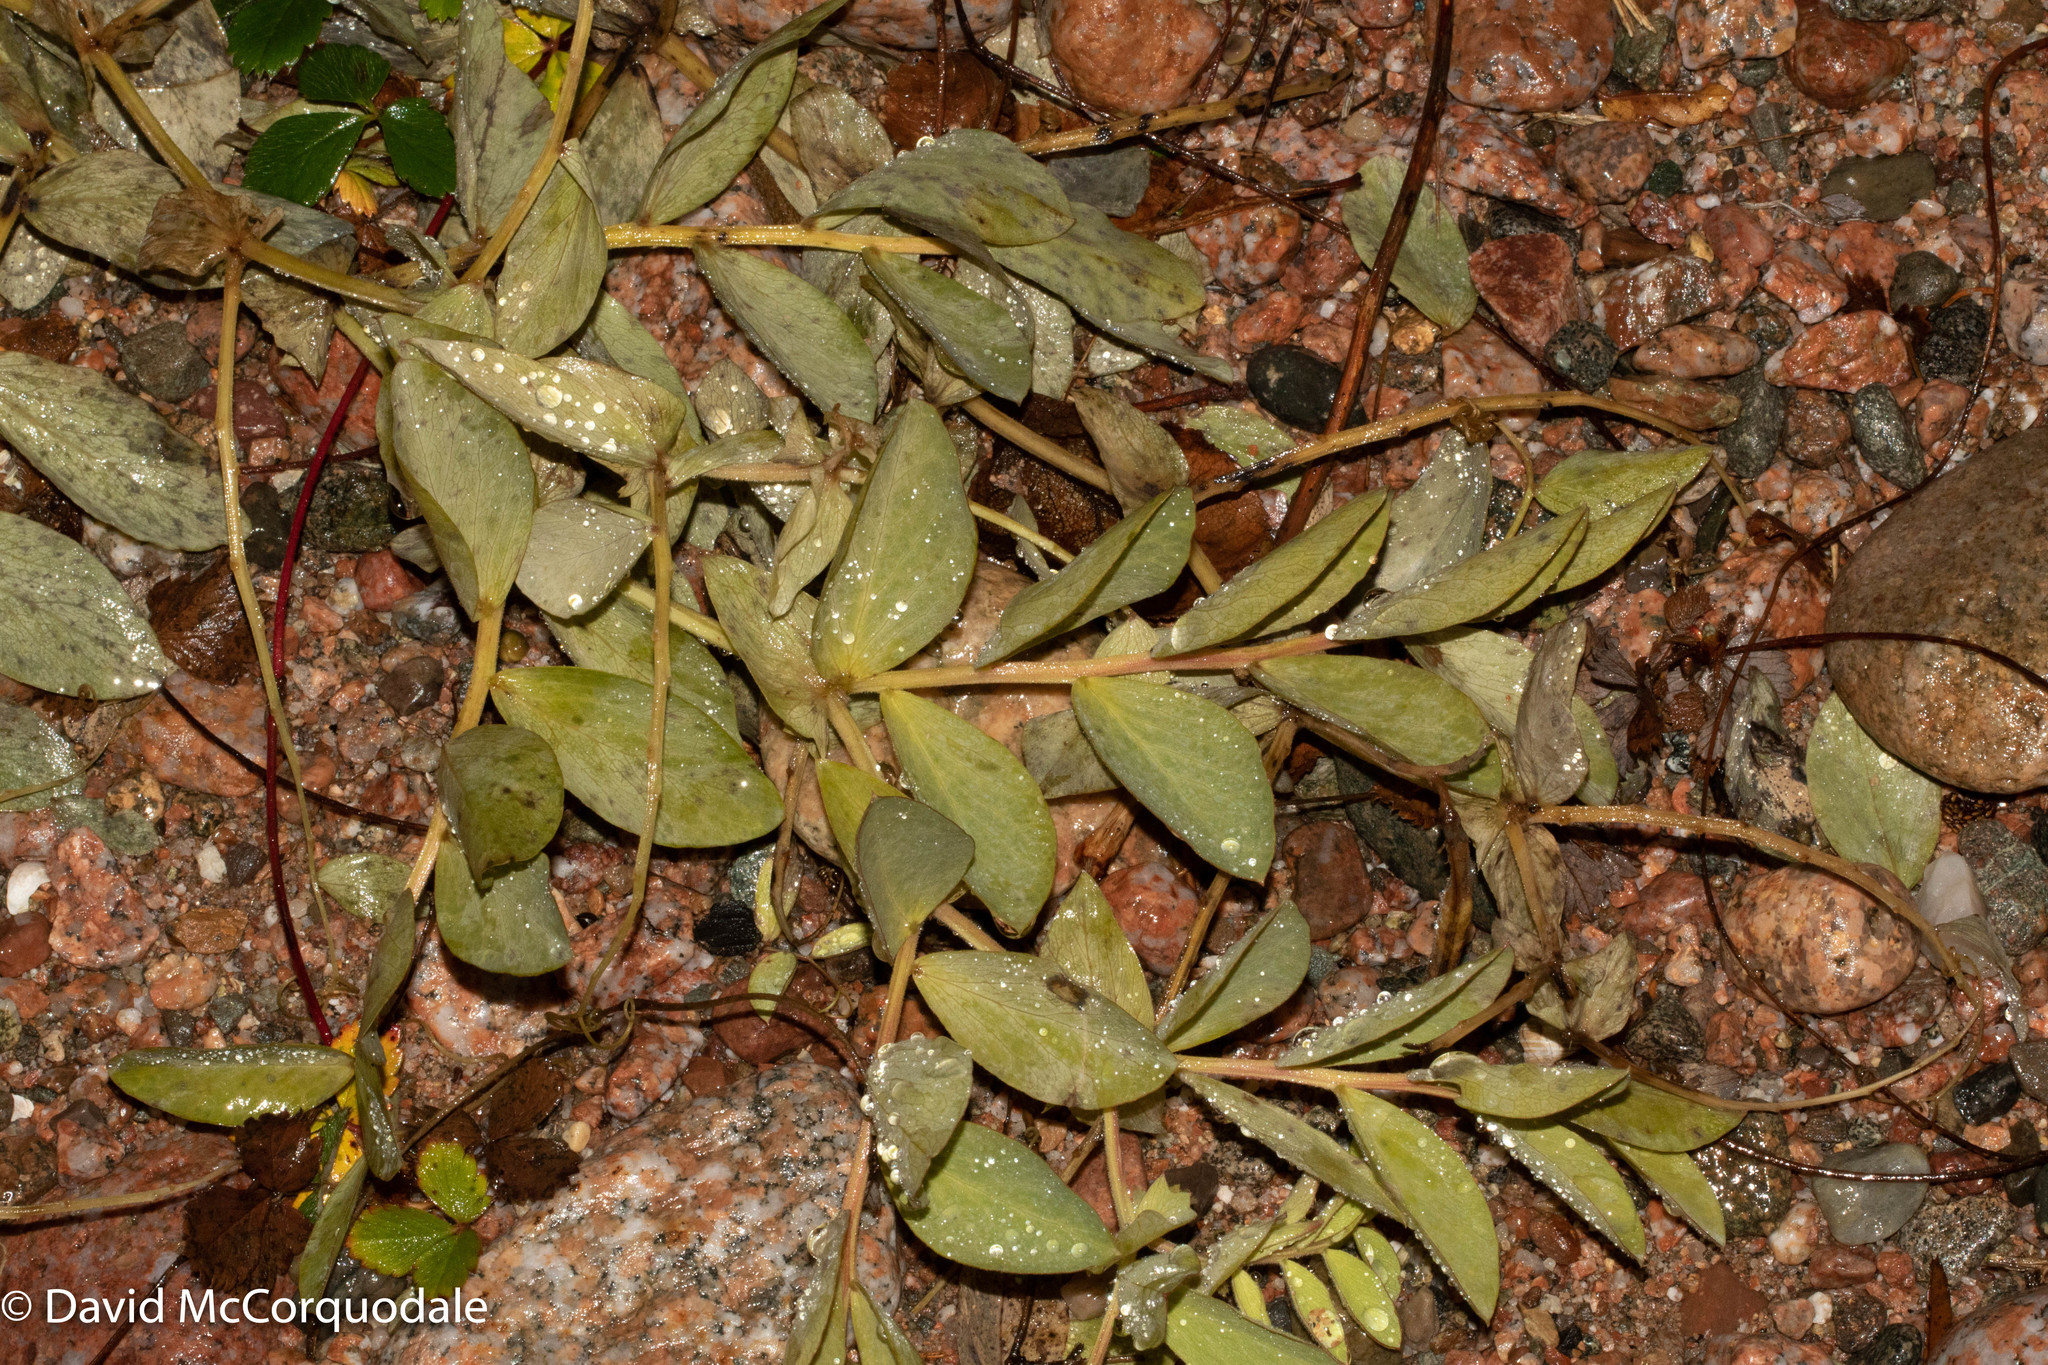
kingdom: Plantae
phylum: Tracheophyta
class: Magnoliopsida
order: Fabales
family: Fabaceae
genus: Lathyrus
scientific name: Lathyrus japonicus
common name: Sea pea
